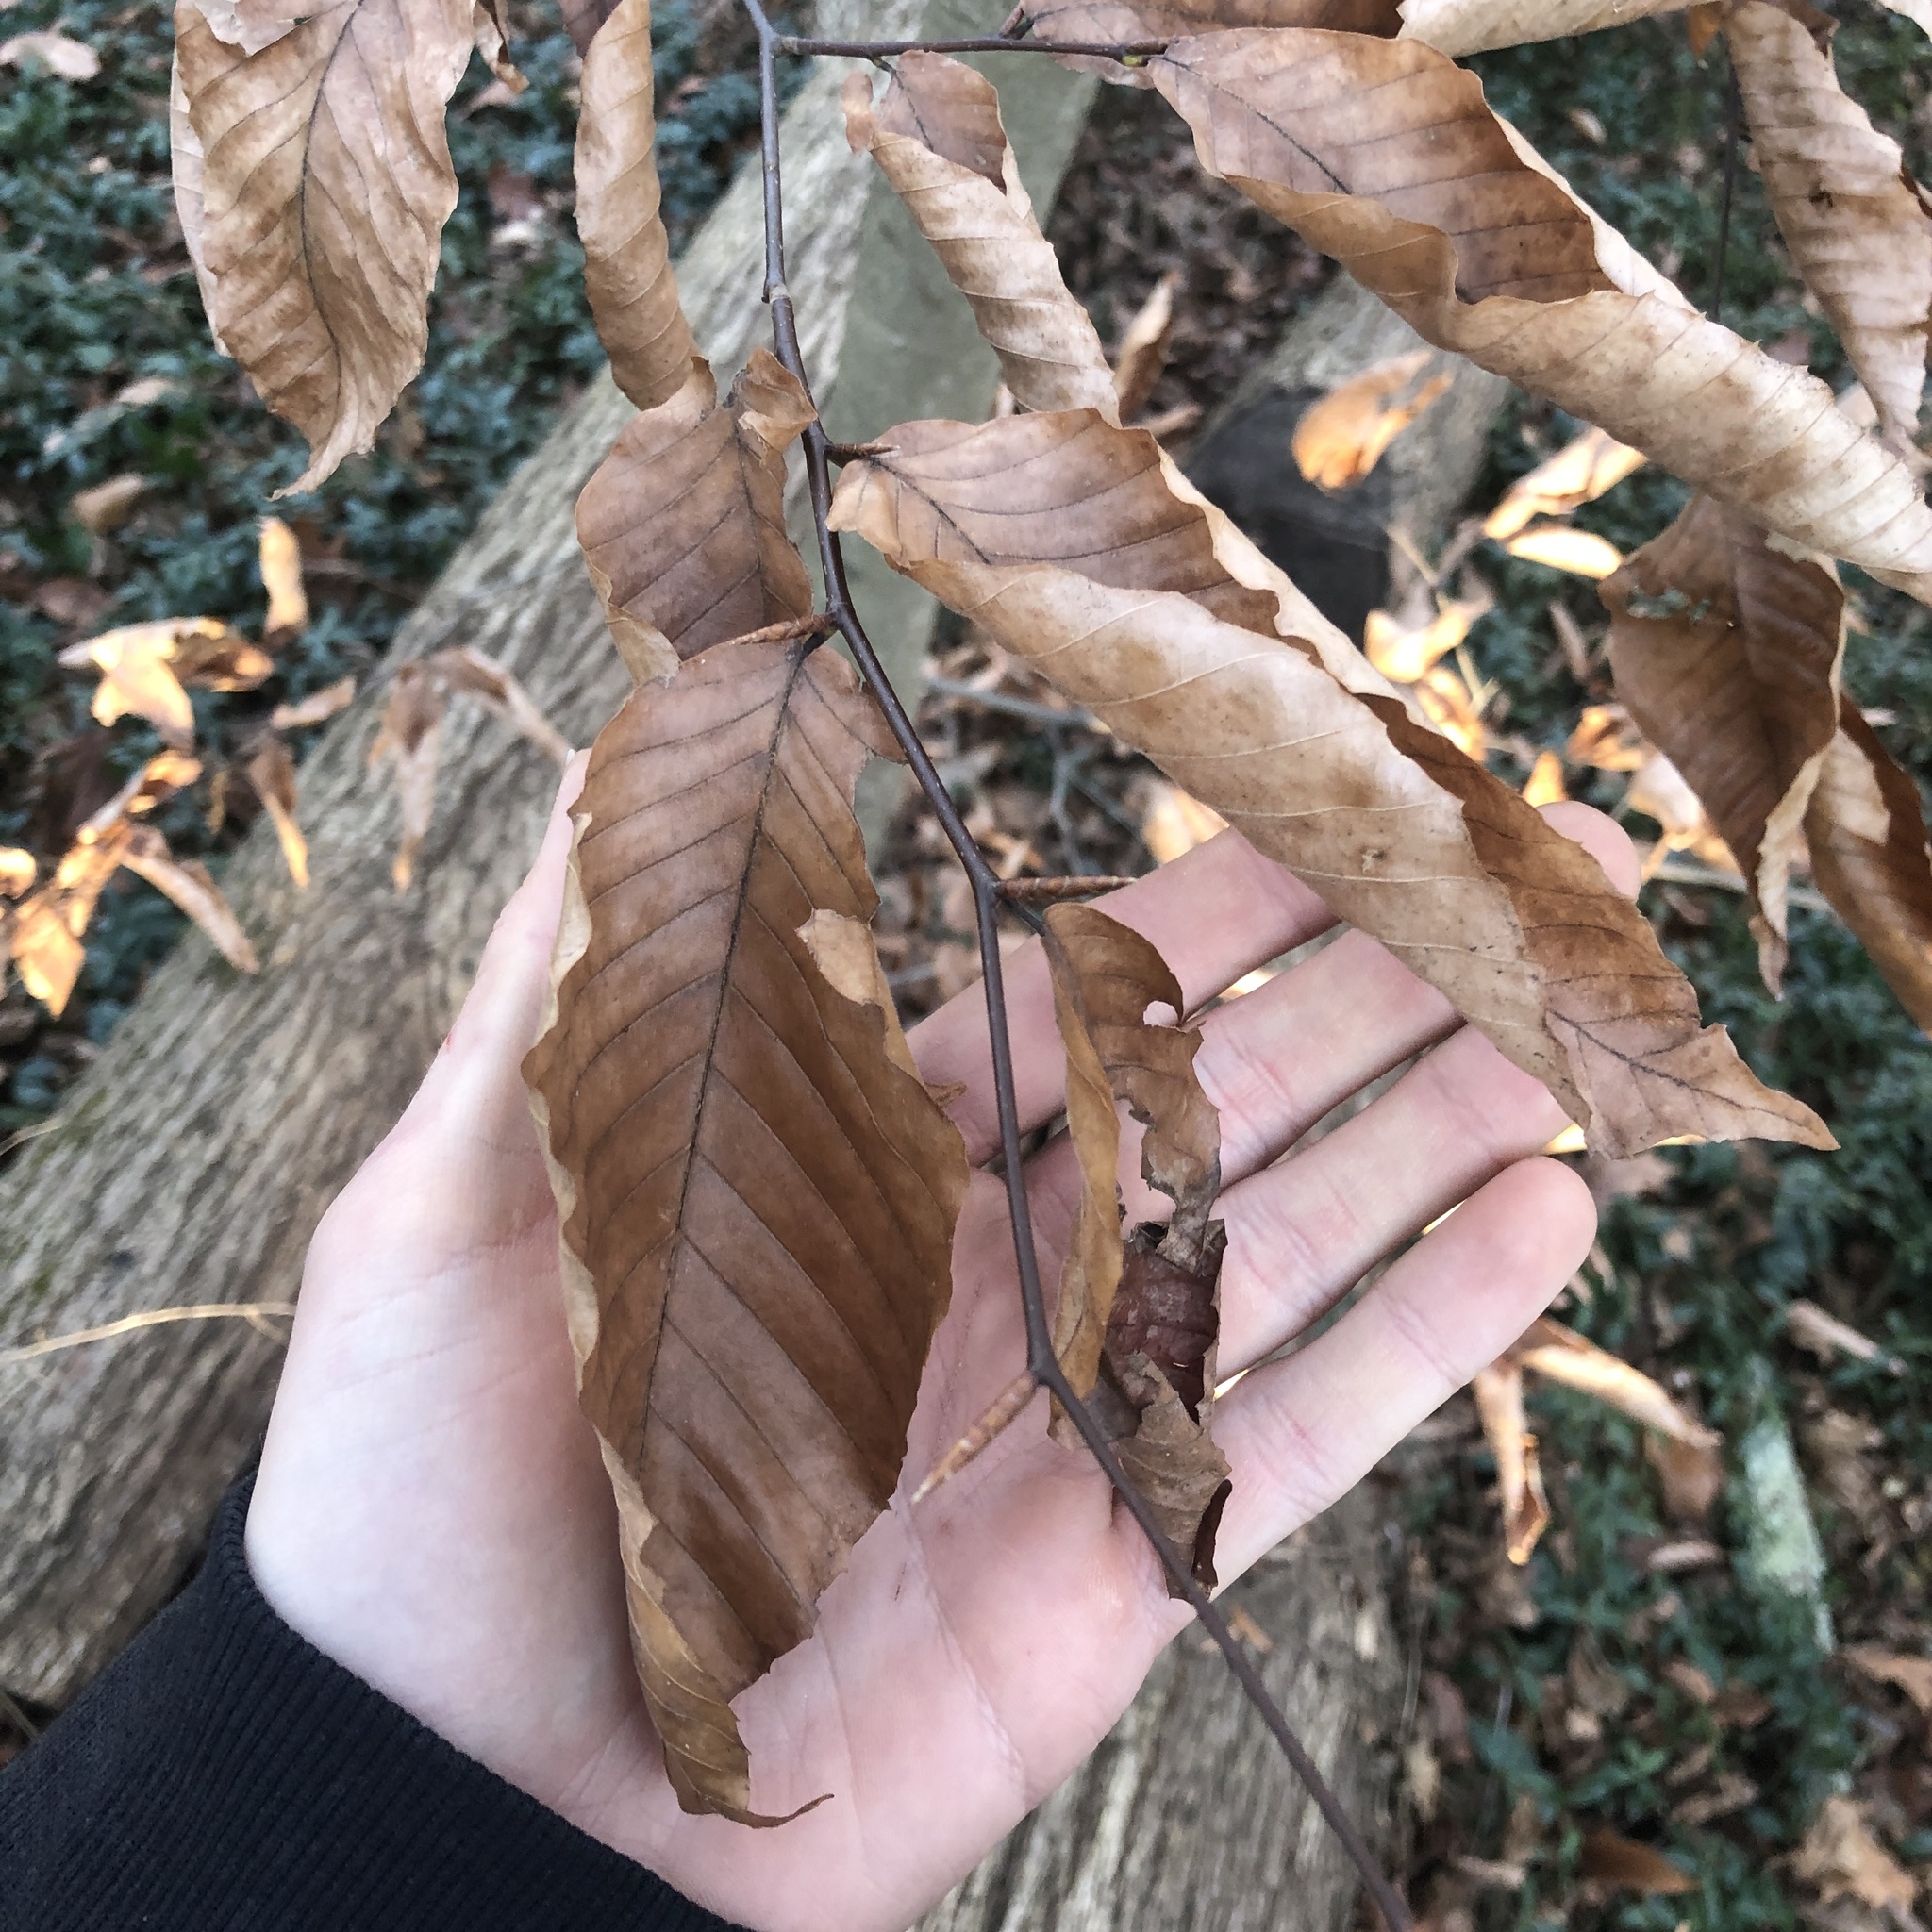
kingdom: Plantae
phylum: Tracheophyta
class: Magnoliopsida
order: Fagales
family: Fagaceae
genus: Fagus
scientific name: Fagus grandifolia
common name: American beech
